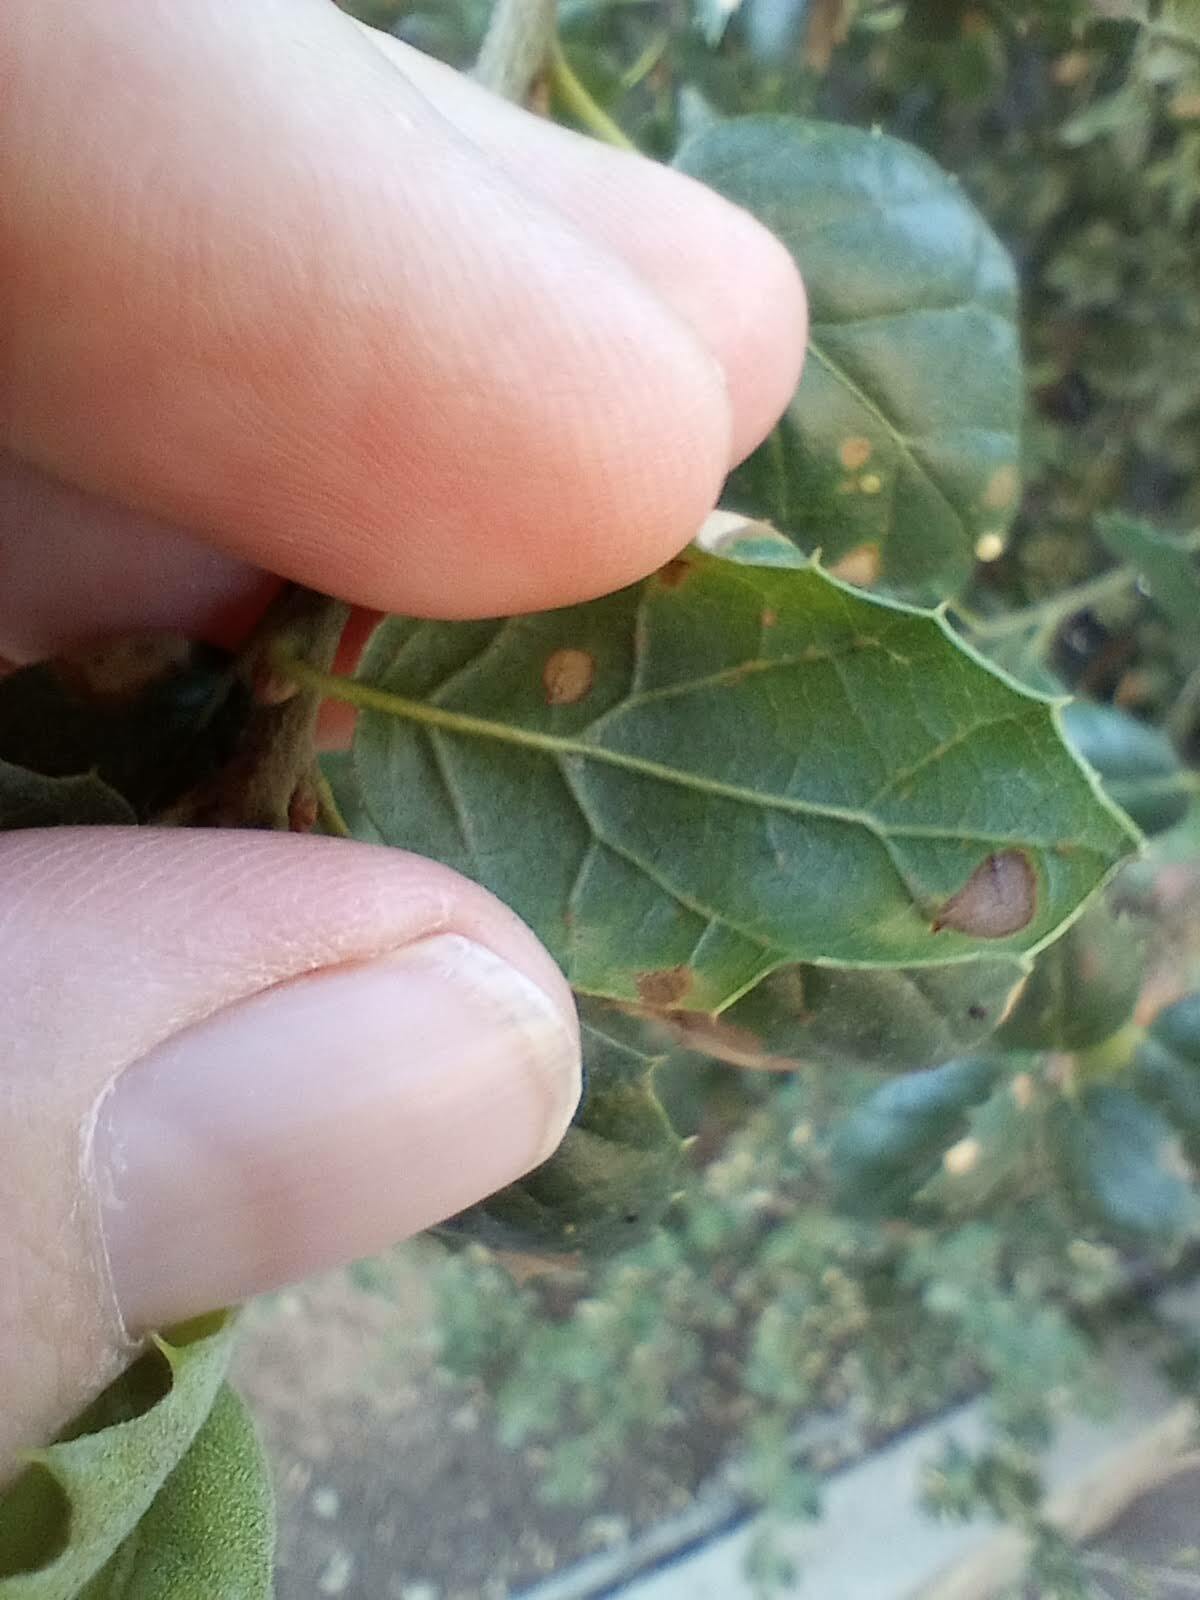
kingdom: Animalia
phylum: Arthropoda
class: Insecta
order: Hymenoptera
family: Cynipidae
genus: Dryocosmus
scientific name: Dryocosmus
